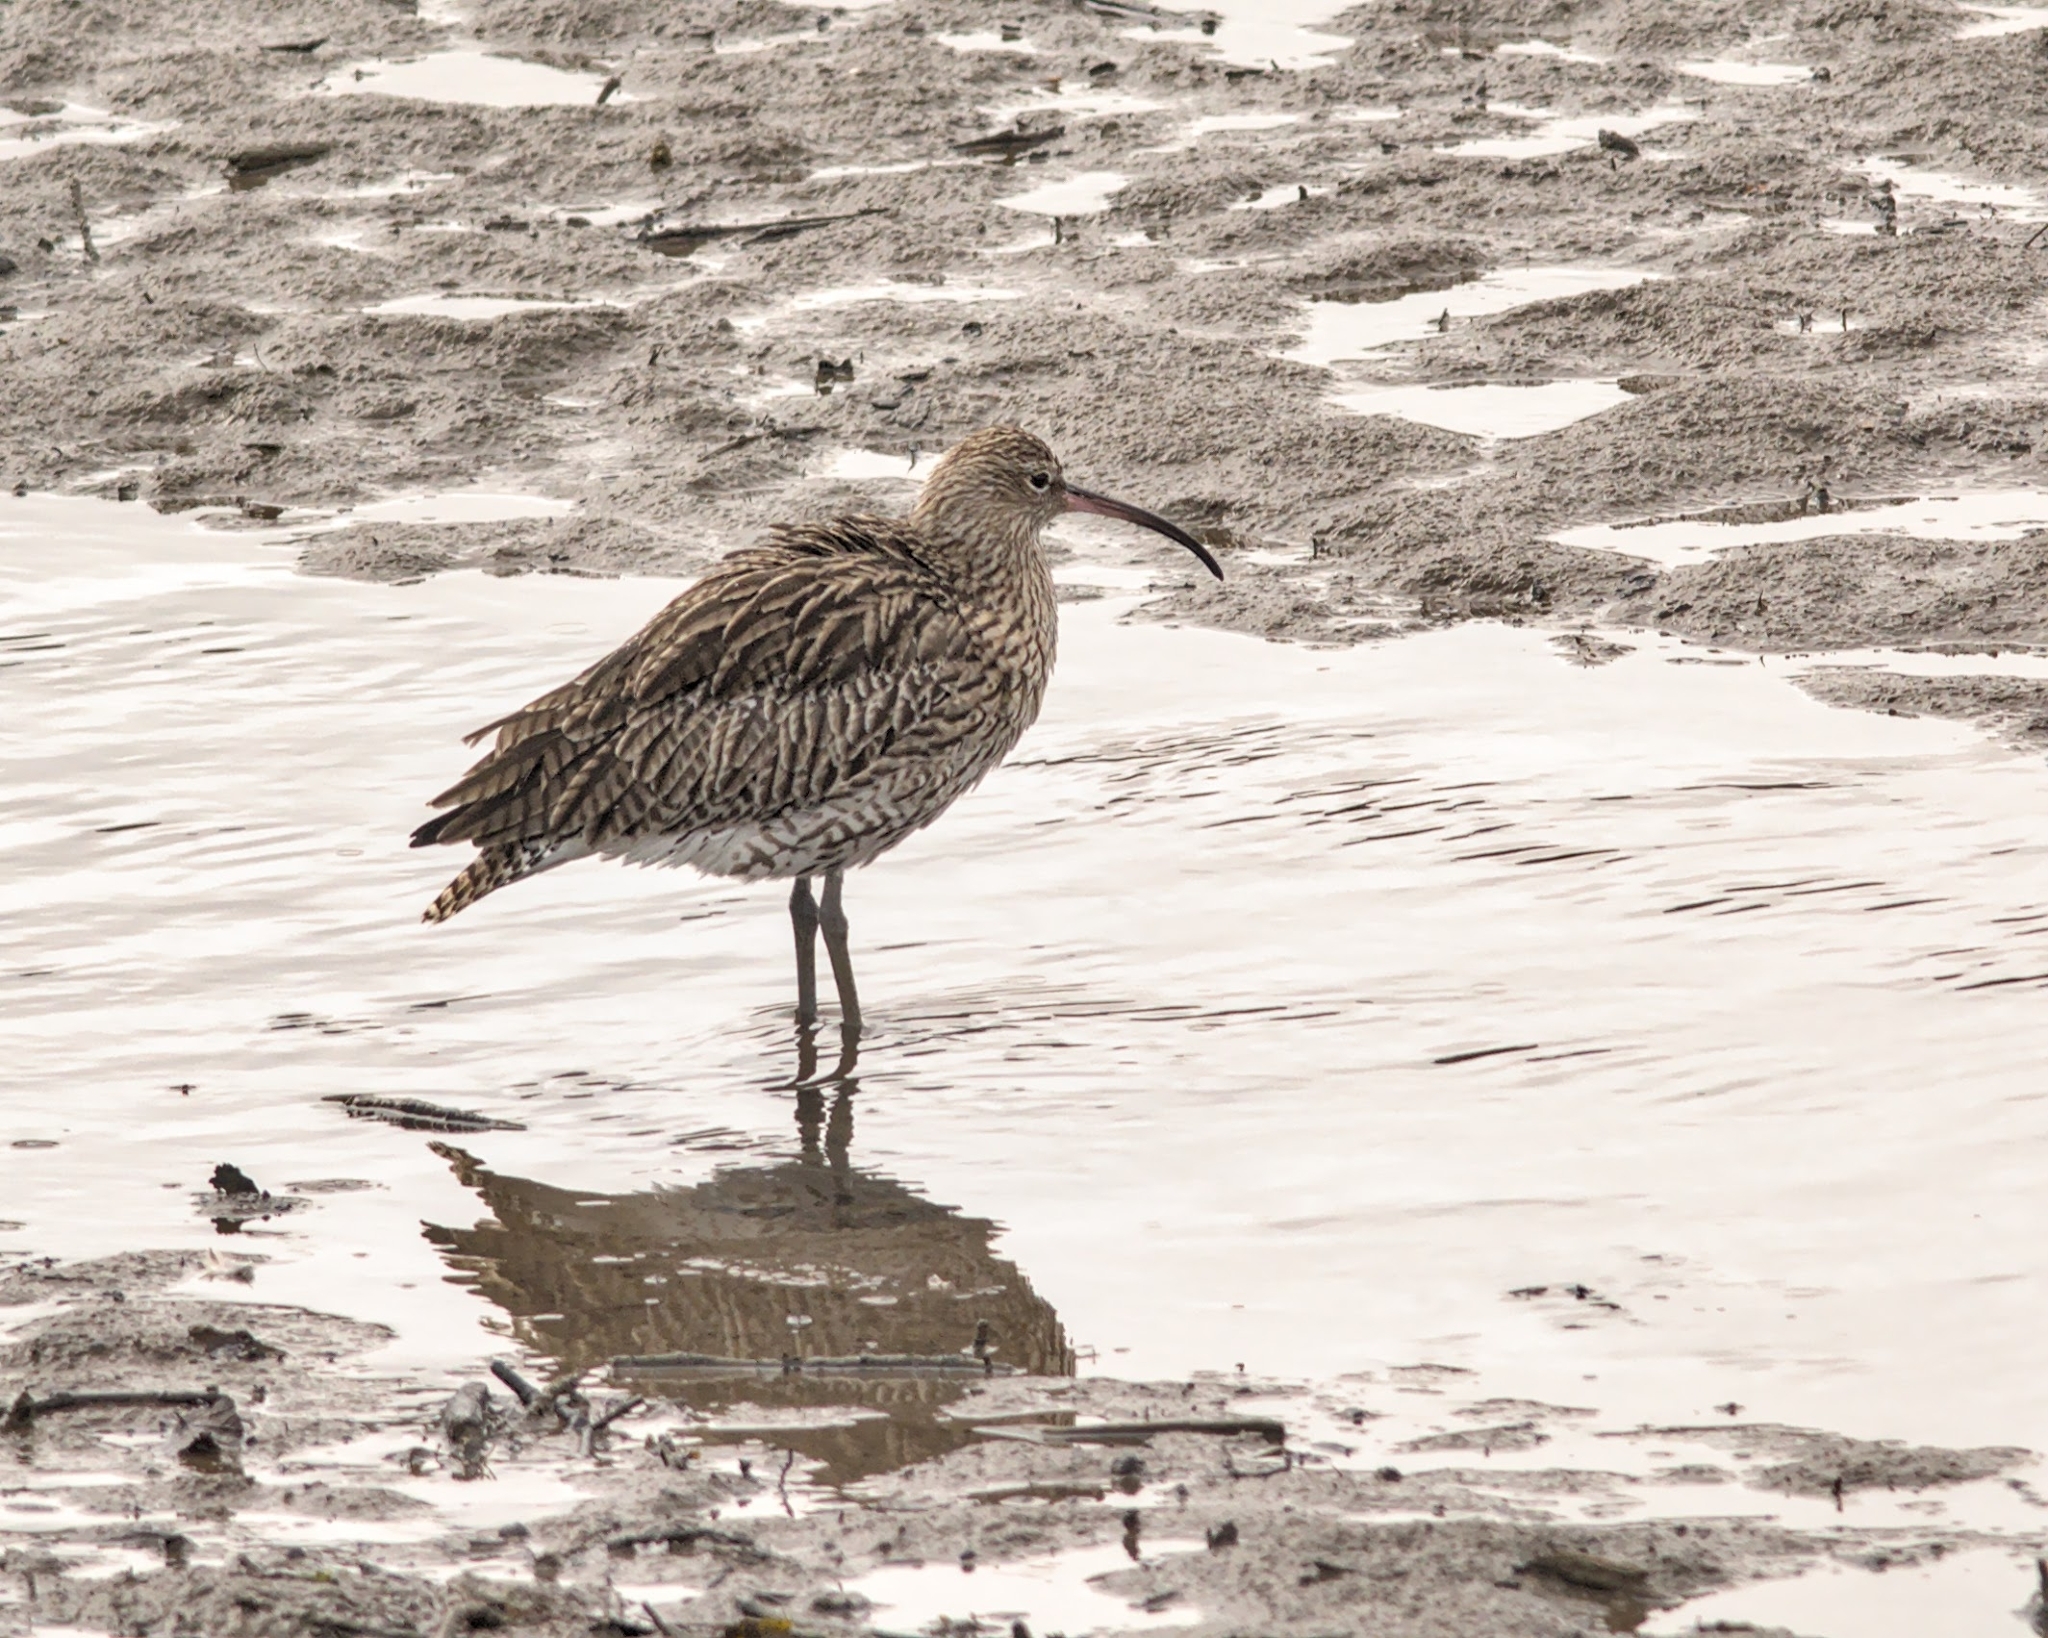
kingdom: Animalia
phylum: Chordata
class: Aves
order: Charadriiformes
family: Scolopacidae
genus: Numenius
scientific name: Numenius arquata
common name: Eurasian curlew
